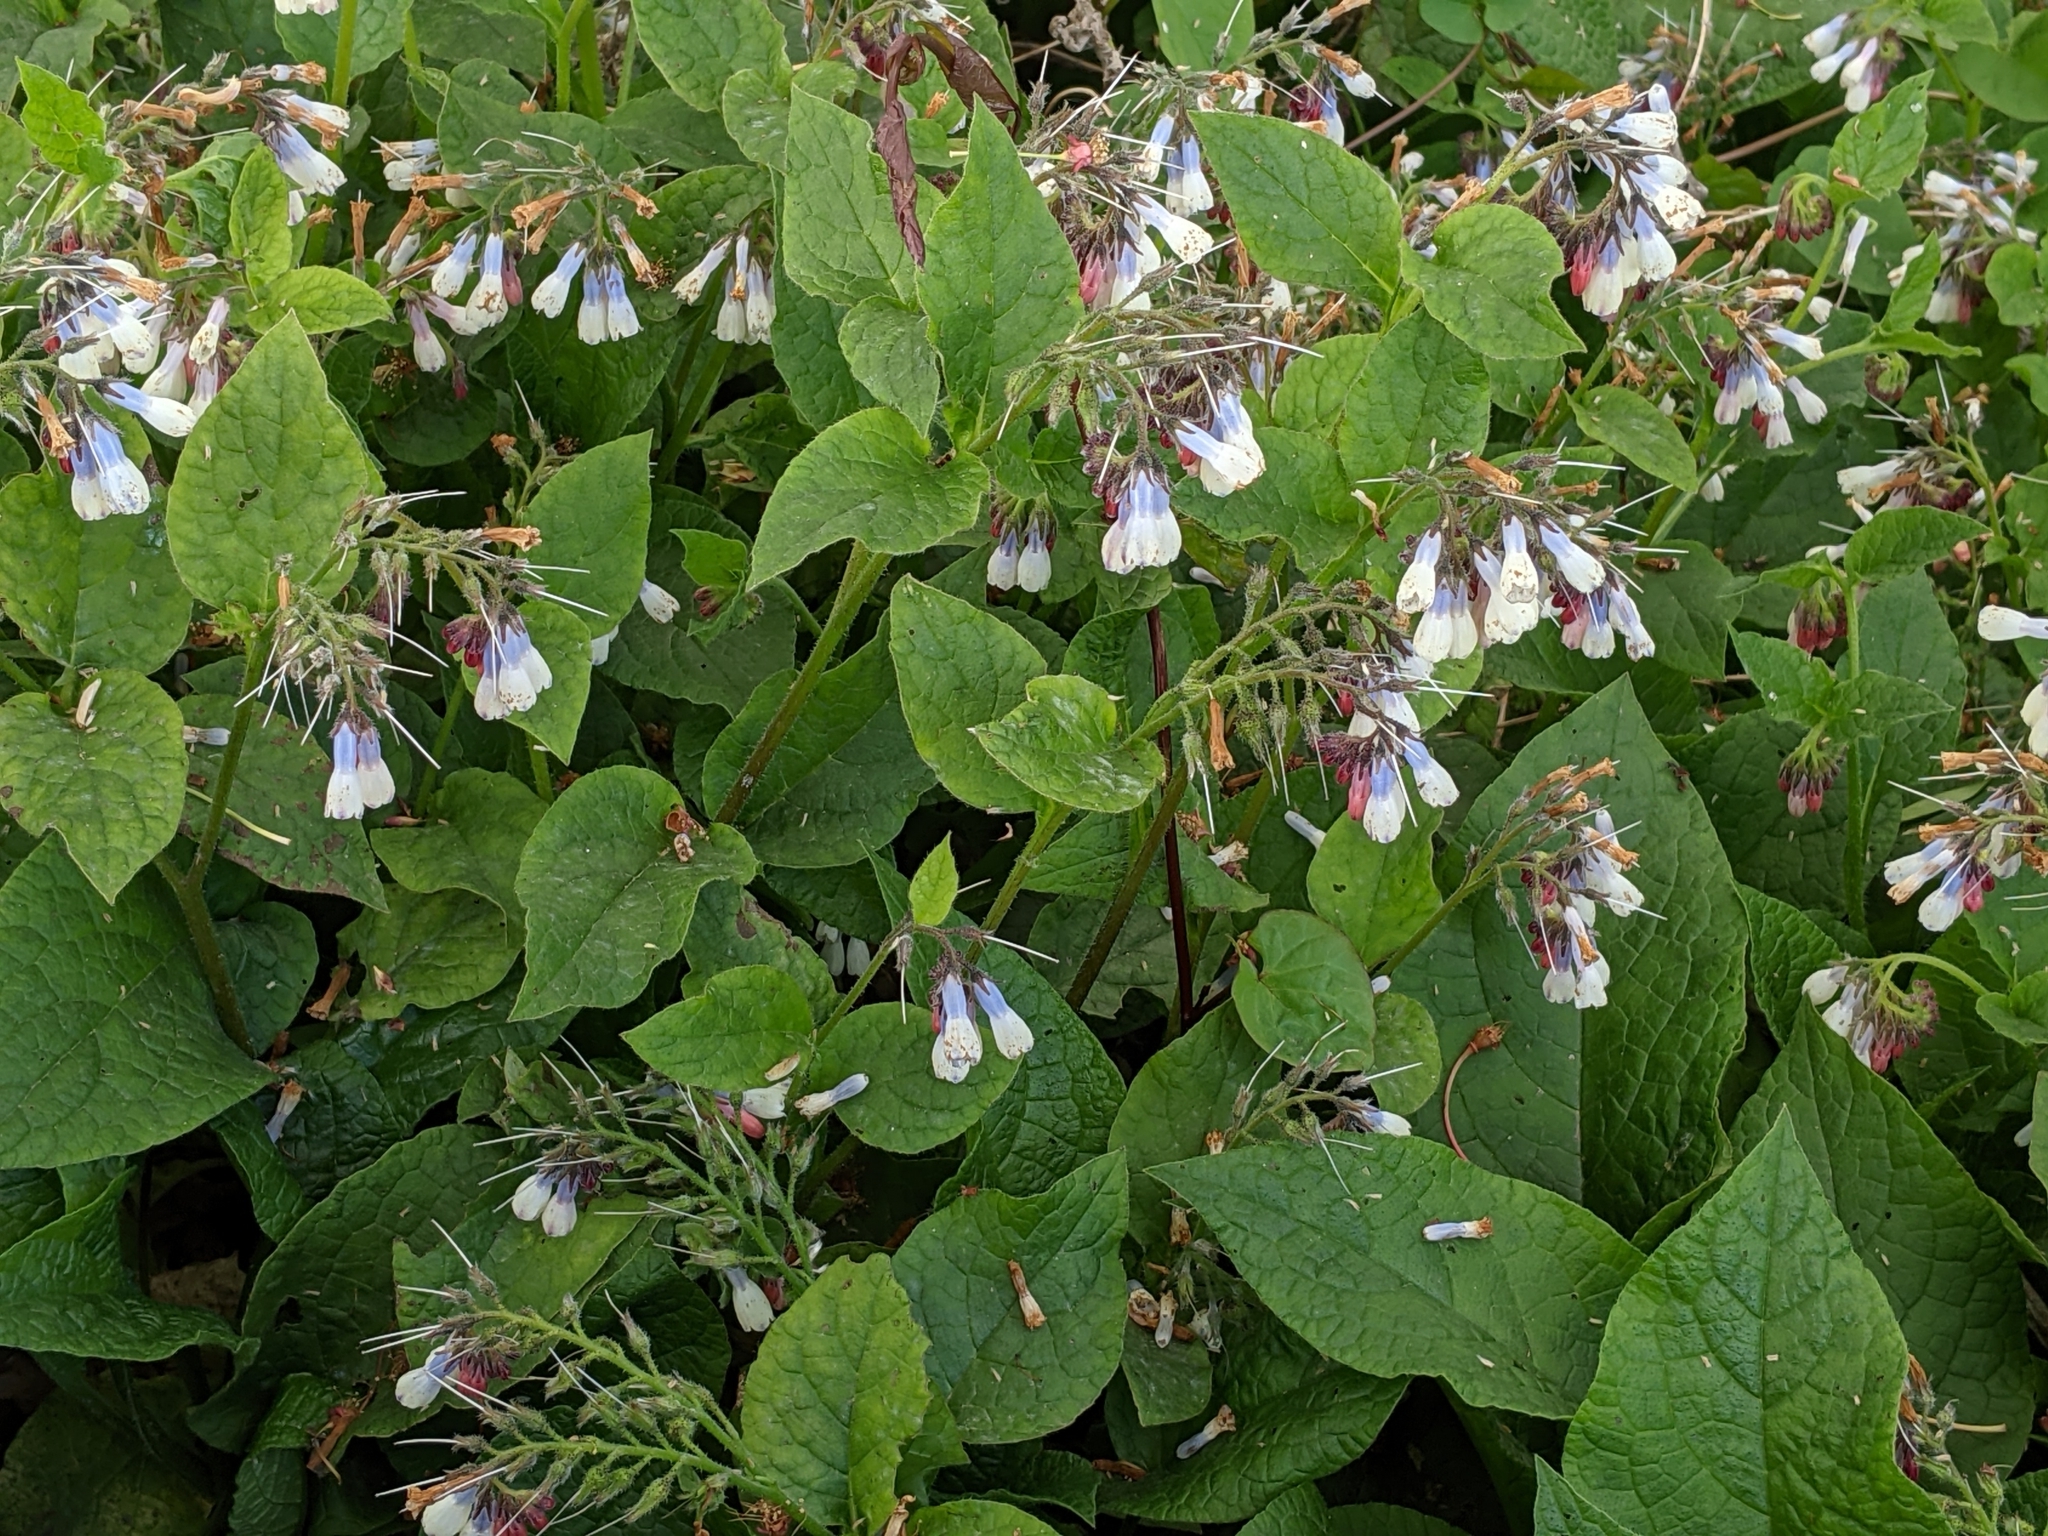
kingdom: Plantae
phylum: Tracheophyta
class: Magnoliopsida
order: Boraginales
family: Boraginaceae
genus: Symphytum
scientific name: Symphytum hidcotense
